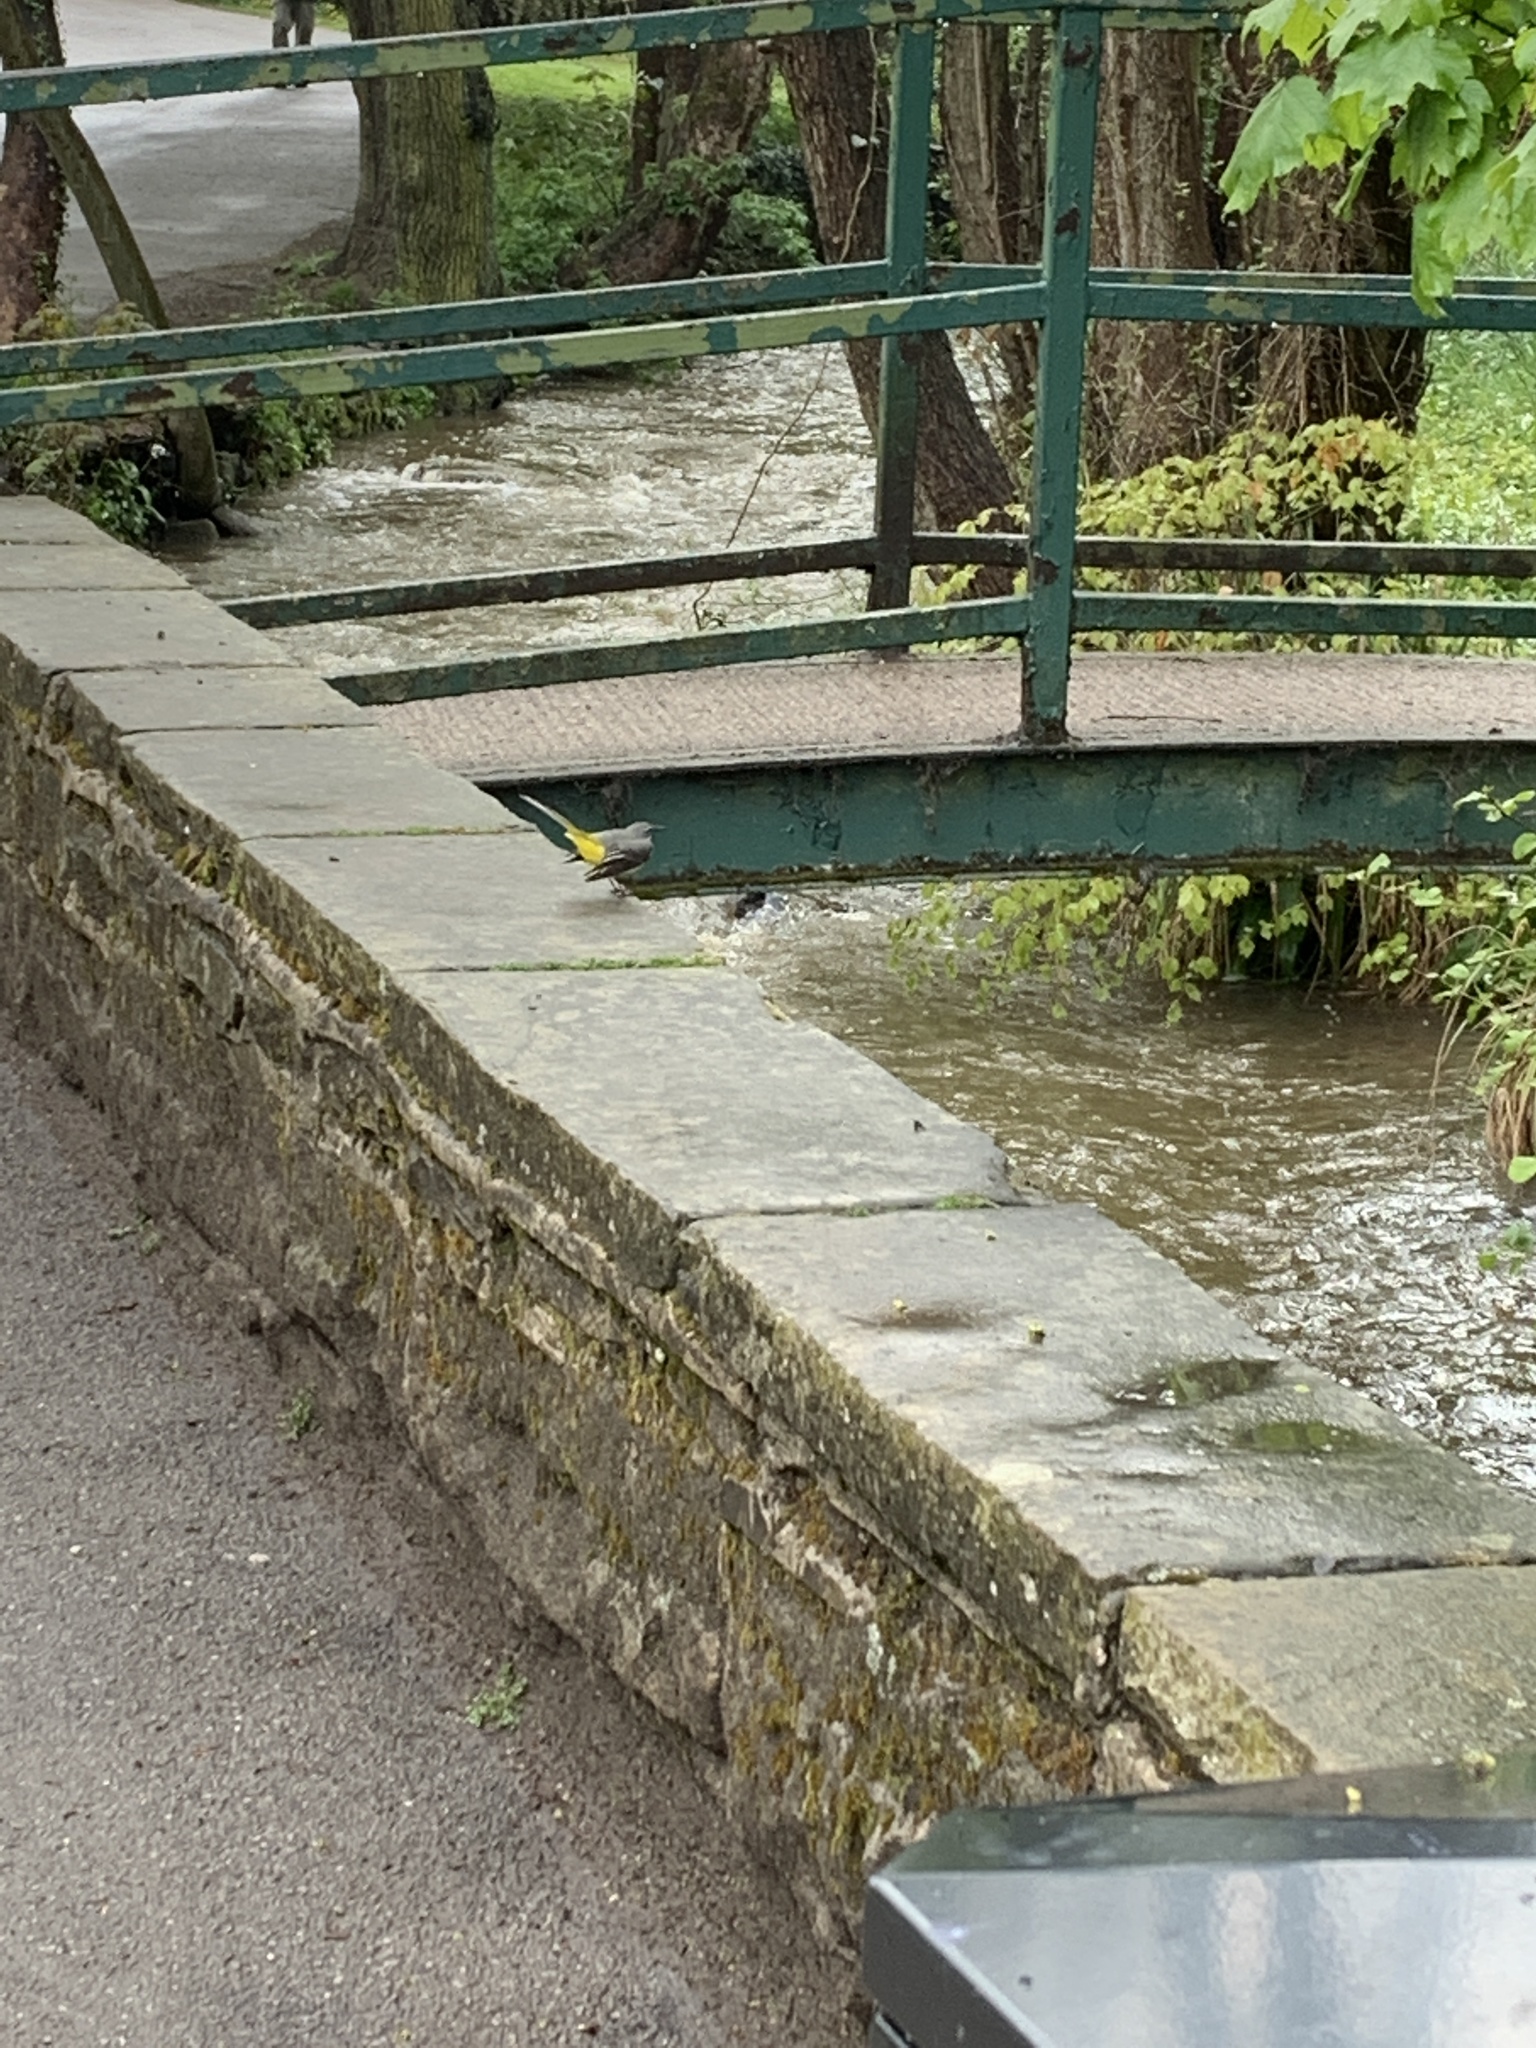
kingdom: Animalia
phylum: Chordata
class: Aves
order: Passeriformes
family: Motacillidae
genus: Motacilla
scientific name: Motacilla cinerea
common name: Grey wagtail
